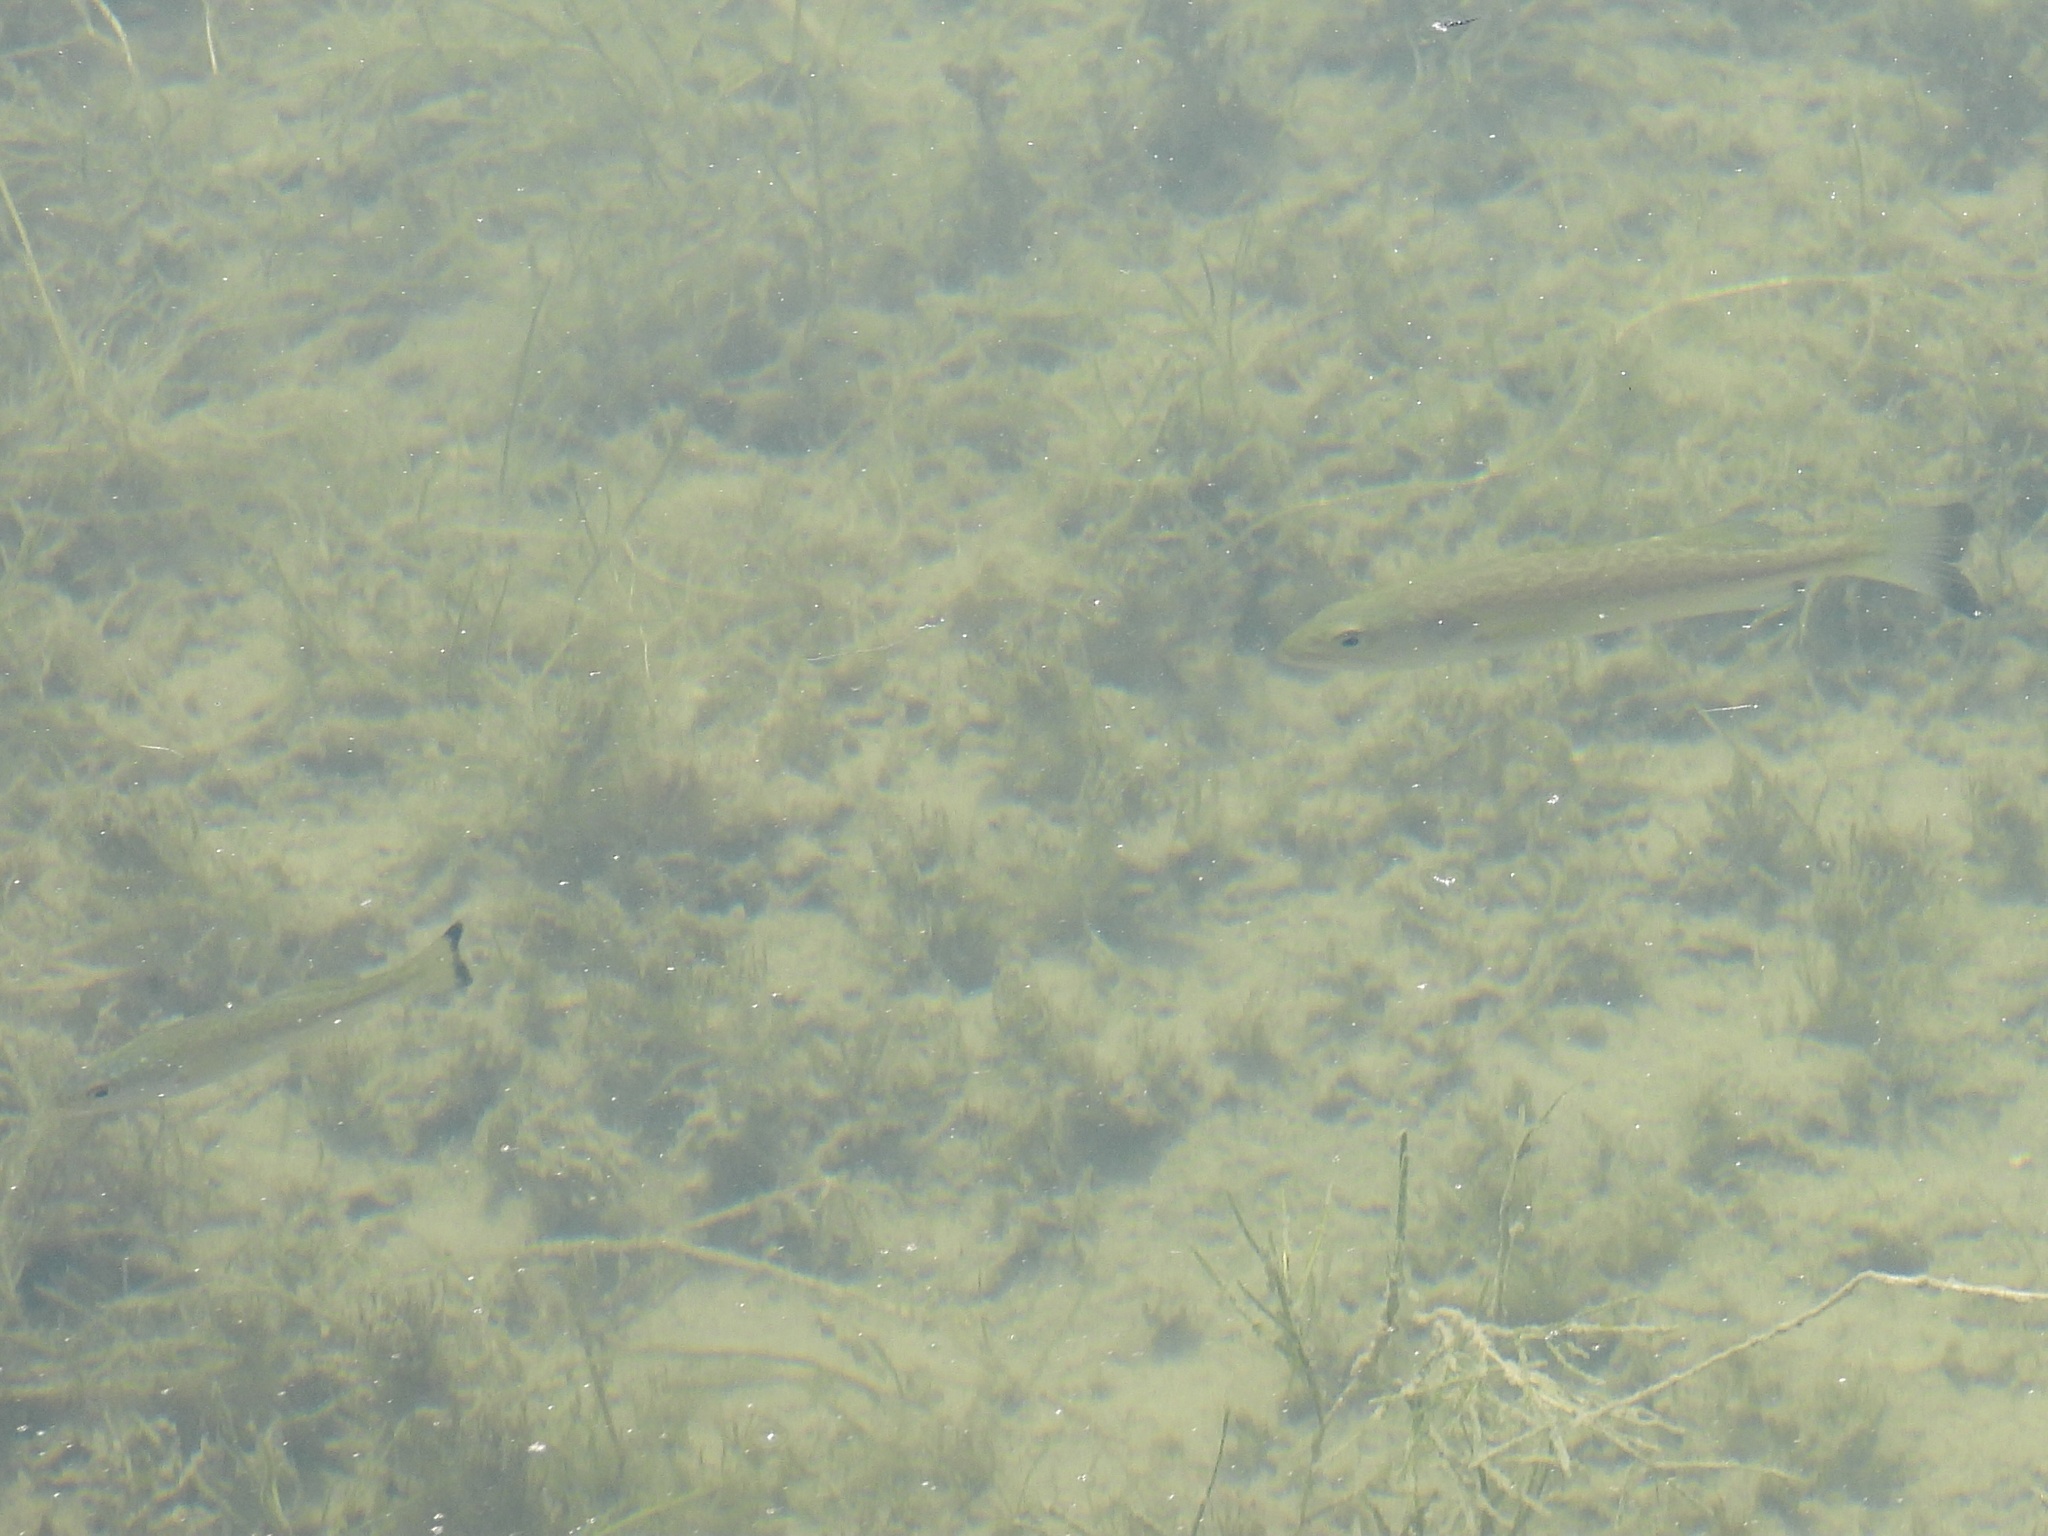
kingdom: Animalia
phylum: Chordata
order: Perciformes
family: Centrarchidae
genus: Micropterus
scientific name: Micropterus
